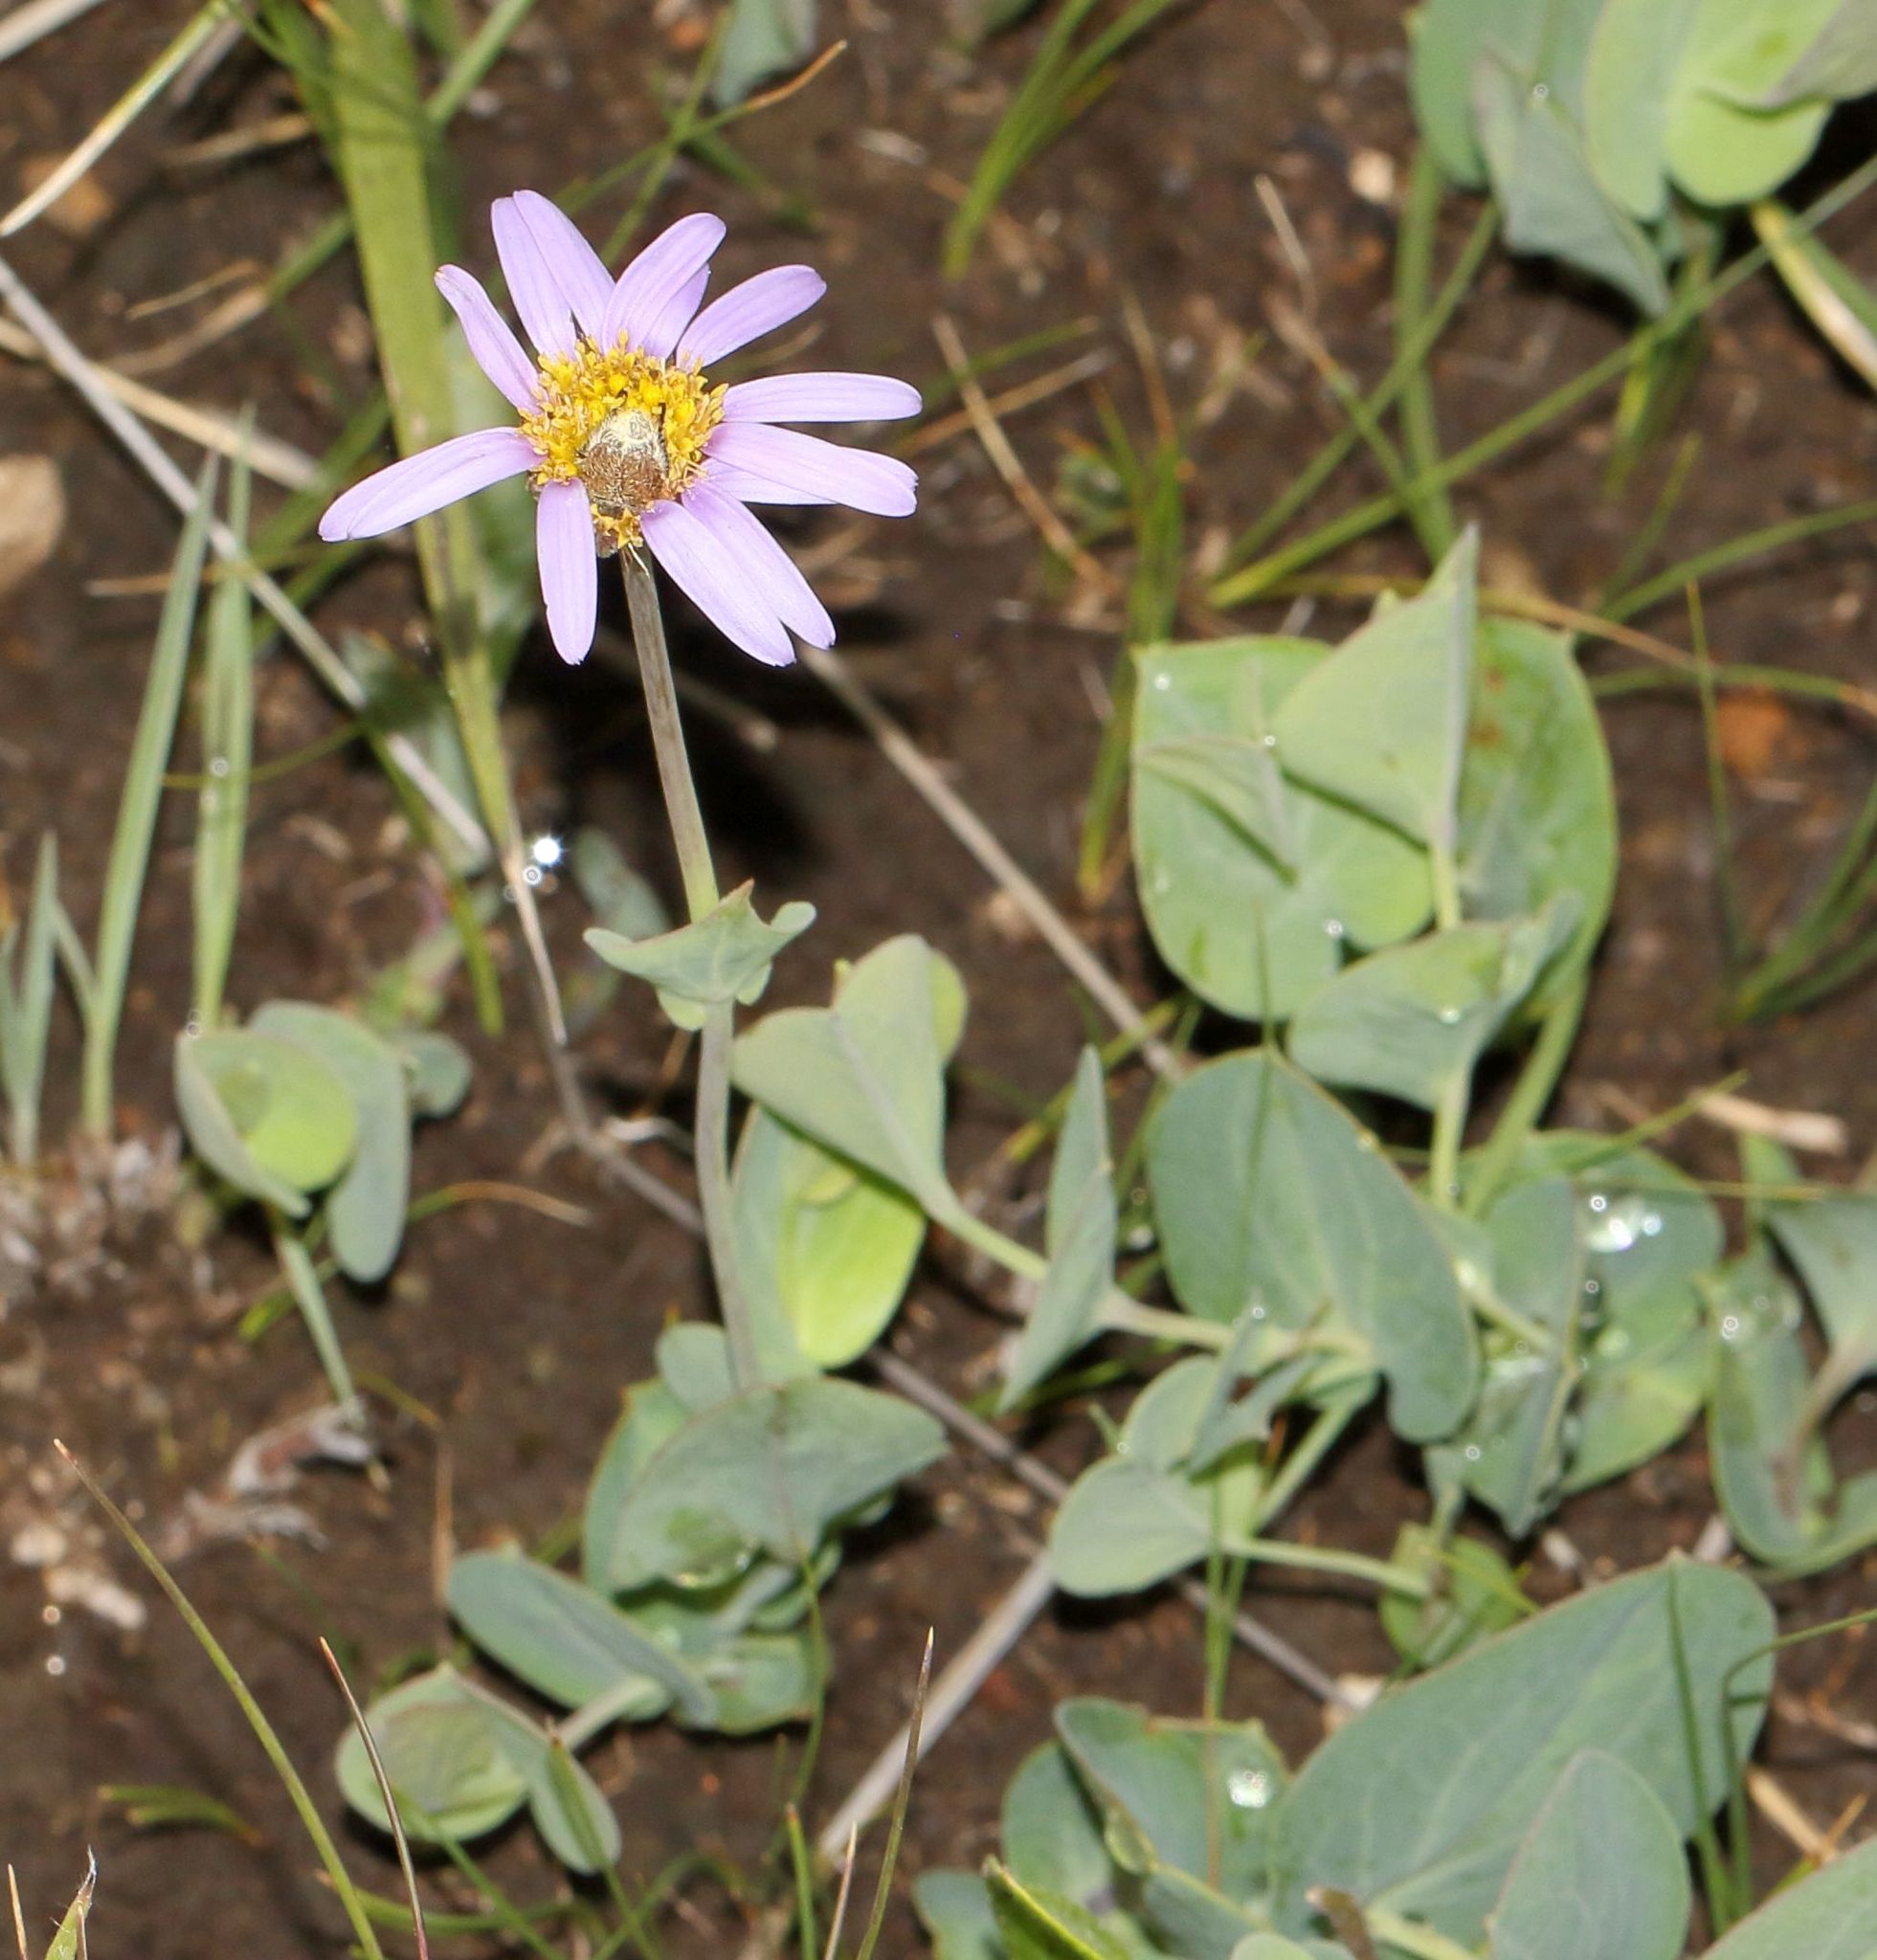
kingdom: Plantae
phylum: Tracheophyta
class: Magnoliopsida
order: Asterales
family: Asteraceae
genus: Afroaster
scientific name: Afroaster perfoliatus
